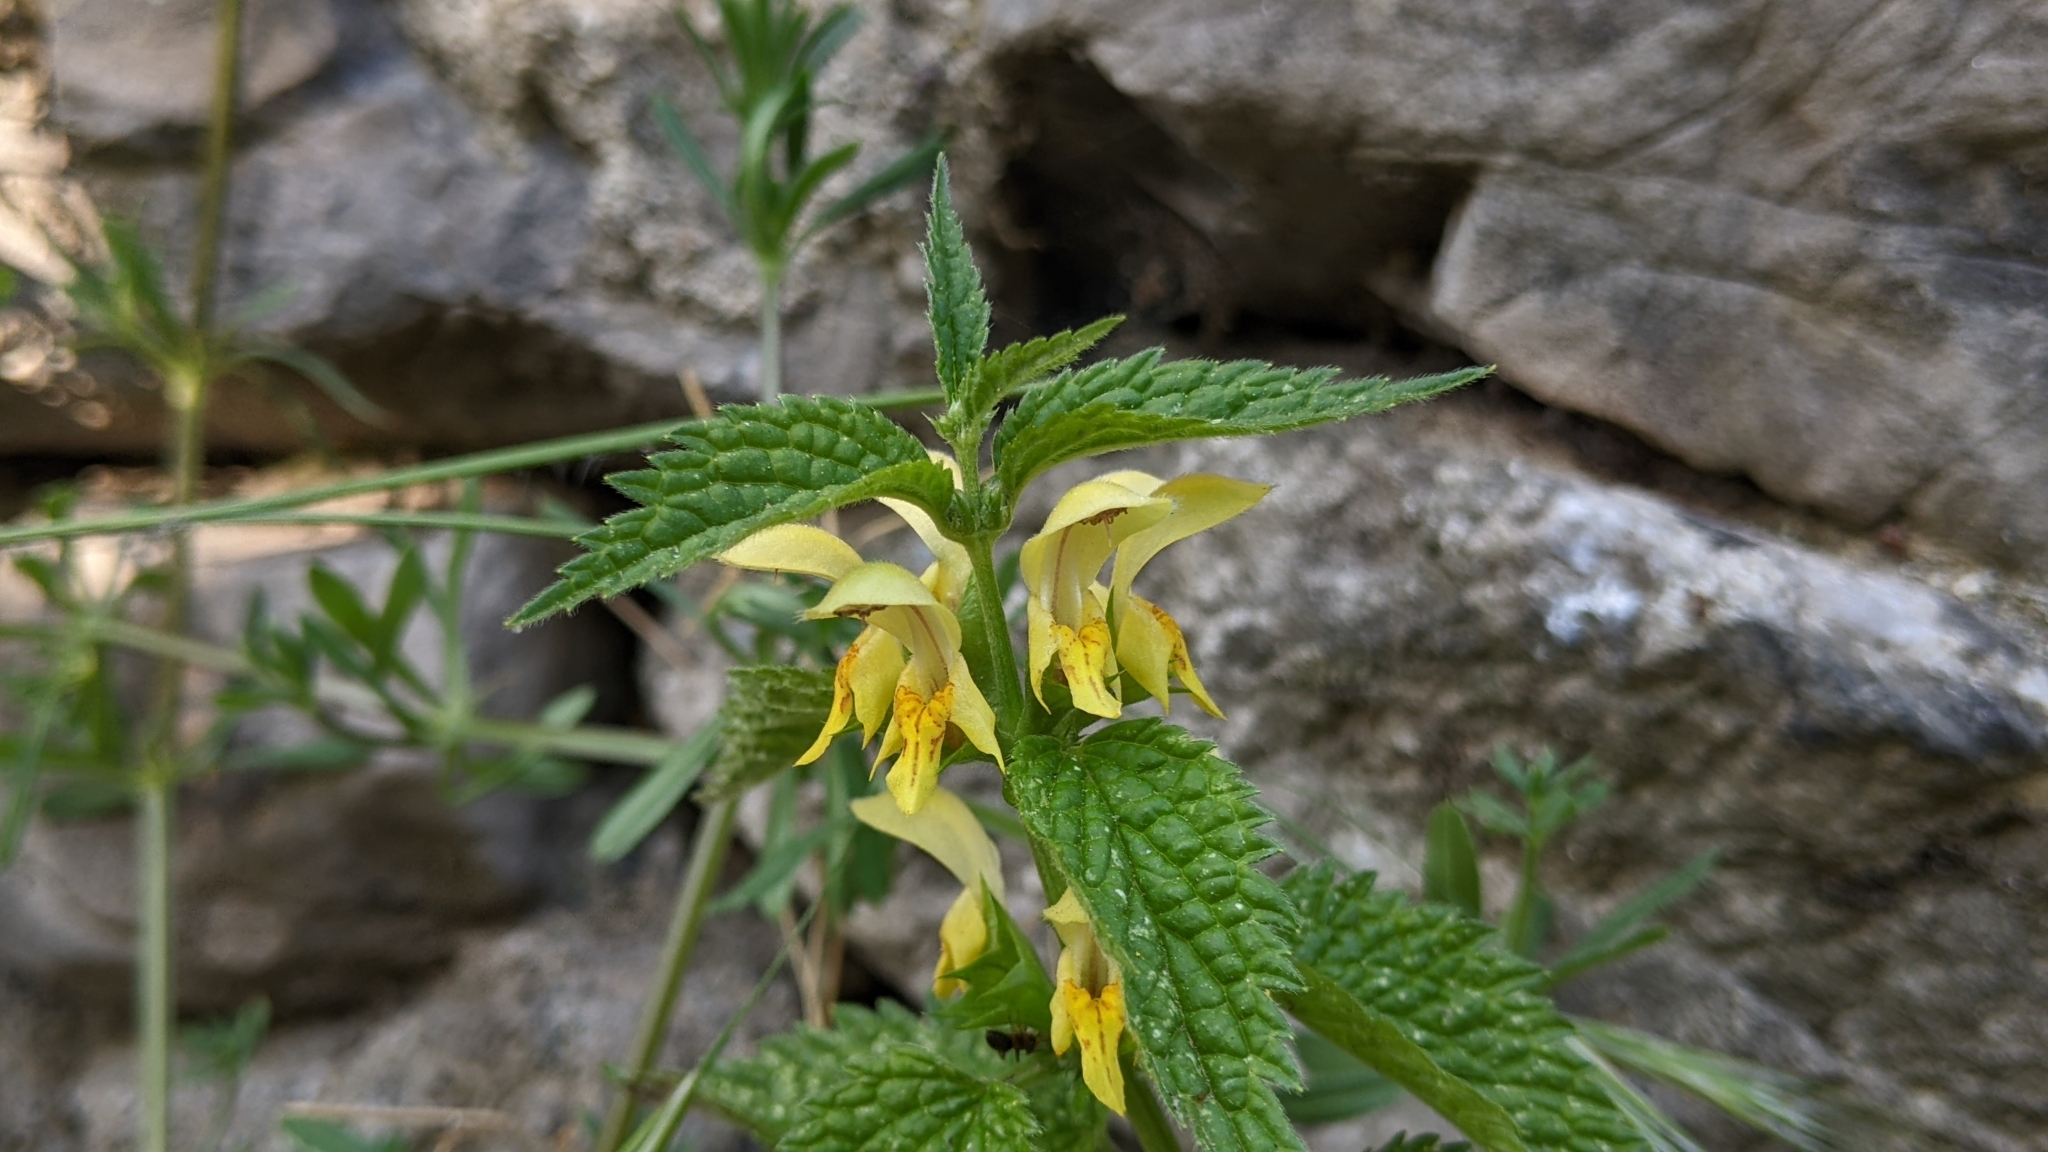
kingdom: Plantae
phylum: Tracheophyta
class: Magnoliopsida
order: Lamiales
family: Lamiaceae
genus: Lamium
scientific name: Lamium galeobdolon
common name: Yellow archangel
